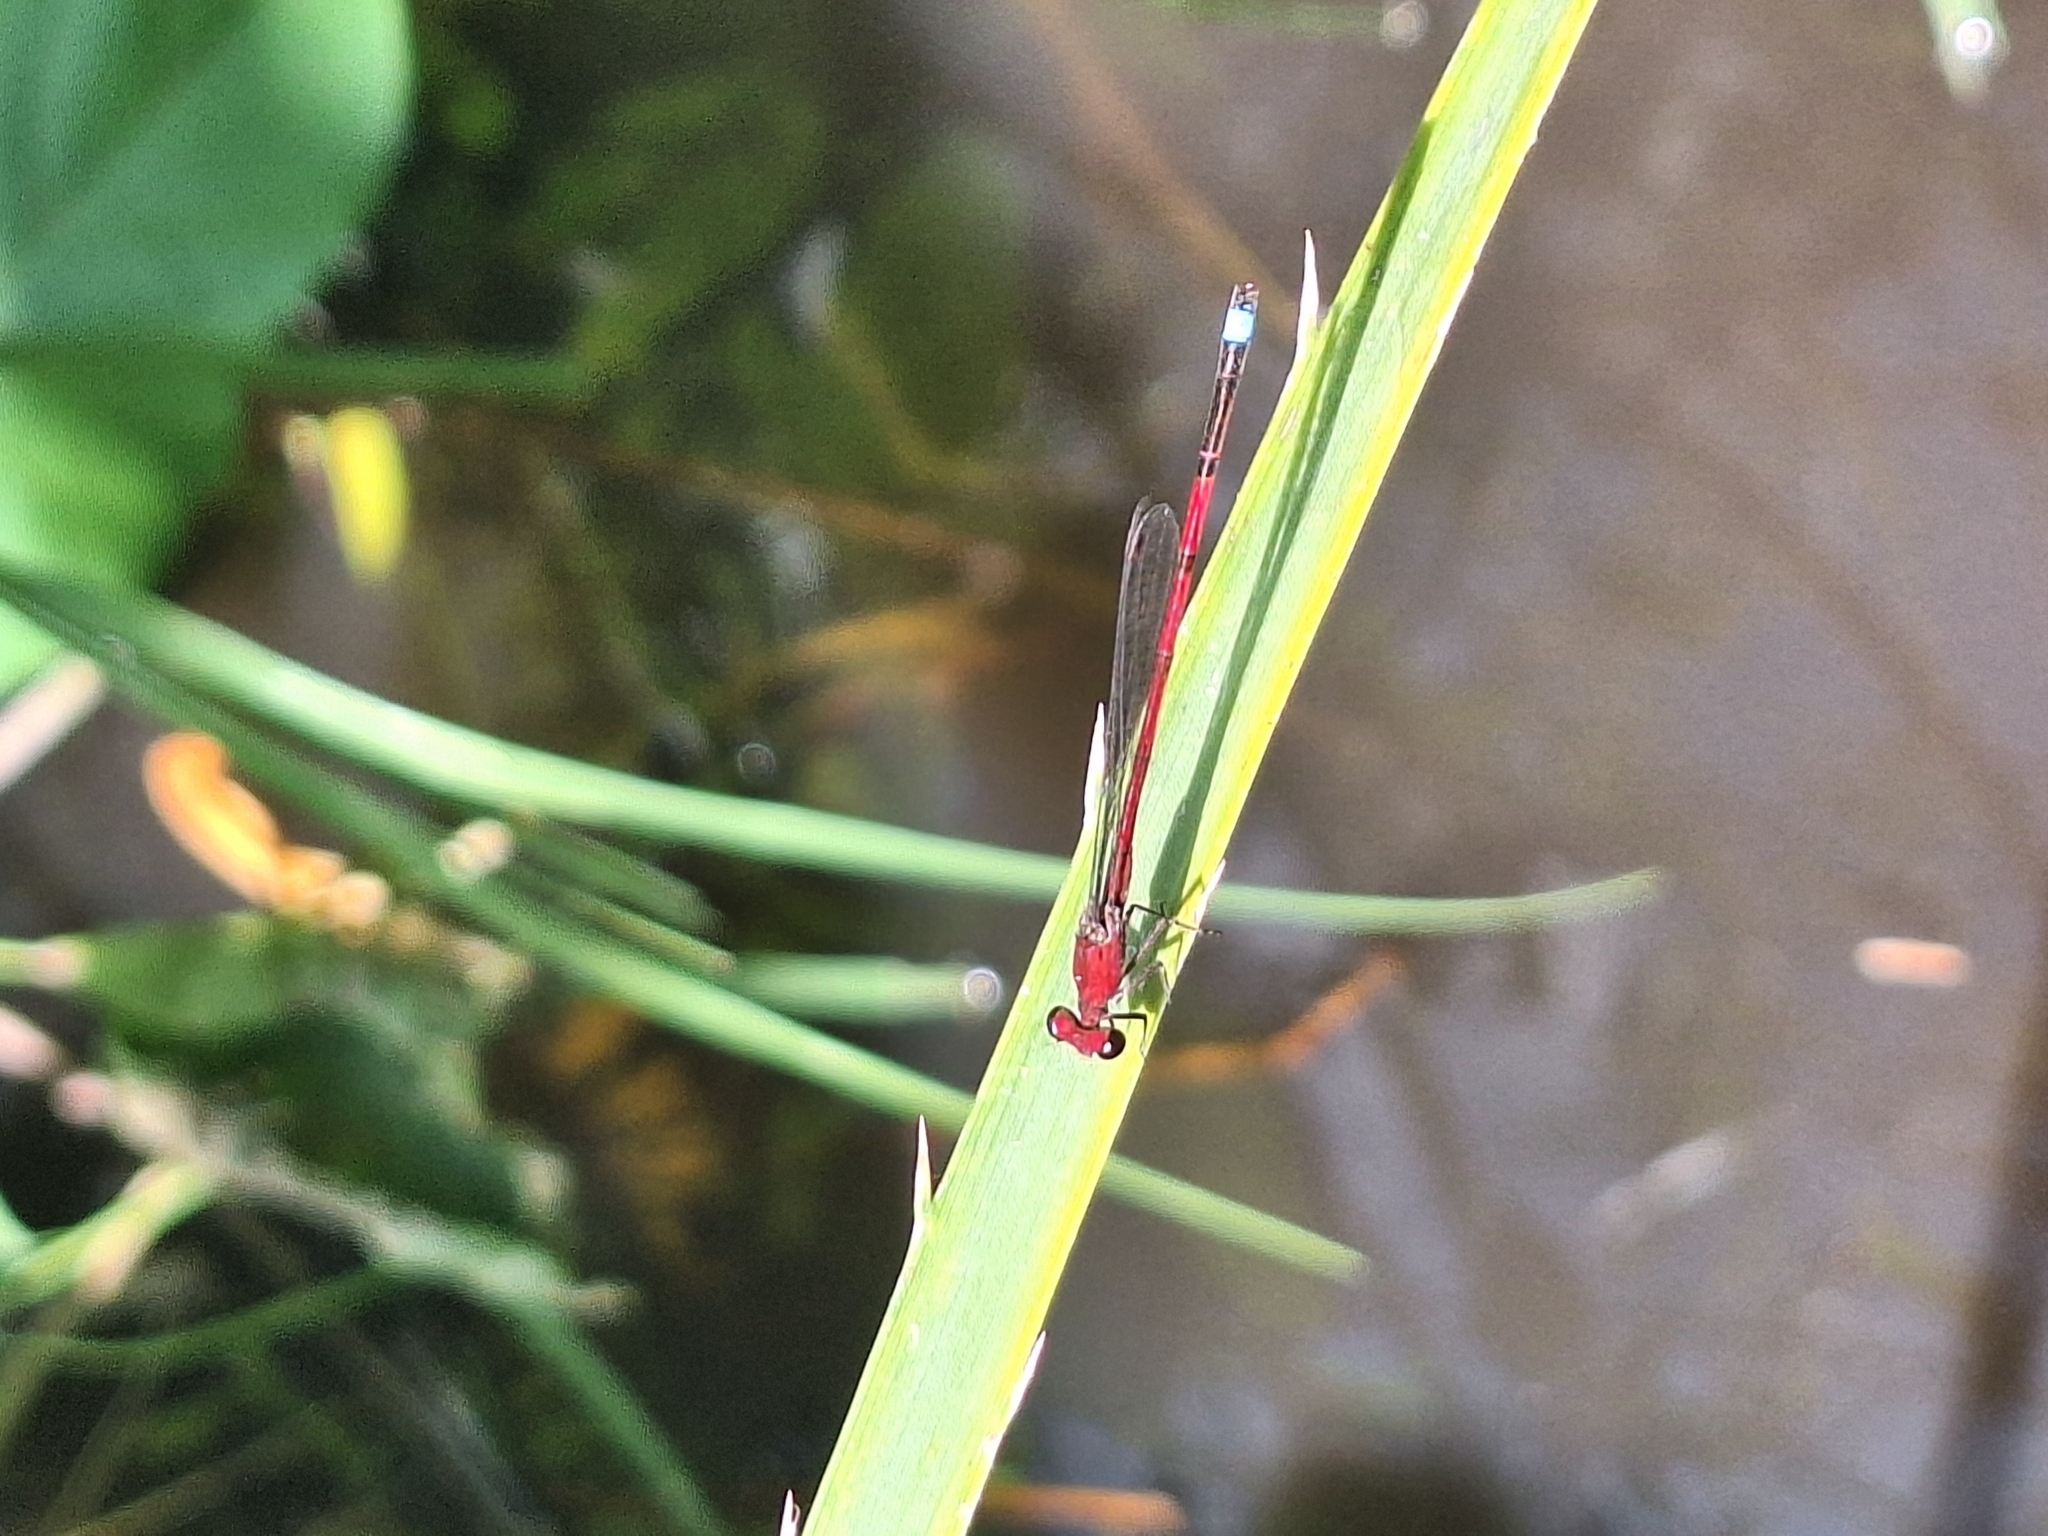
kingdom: Animalia
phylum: Arthropoda
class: Insecta
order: Odonata
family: Coenagrionidae
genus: Oxyagrion
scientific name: Oxyagrion terminale
